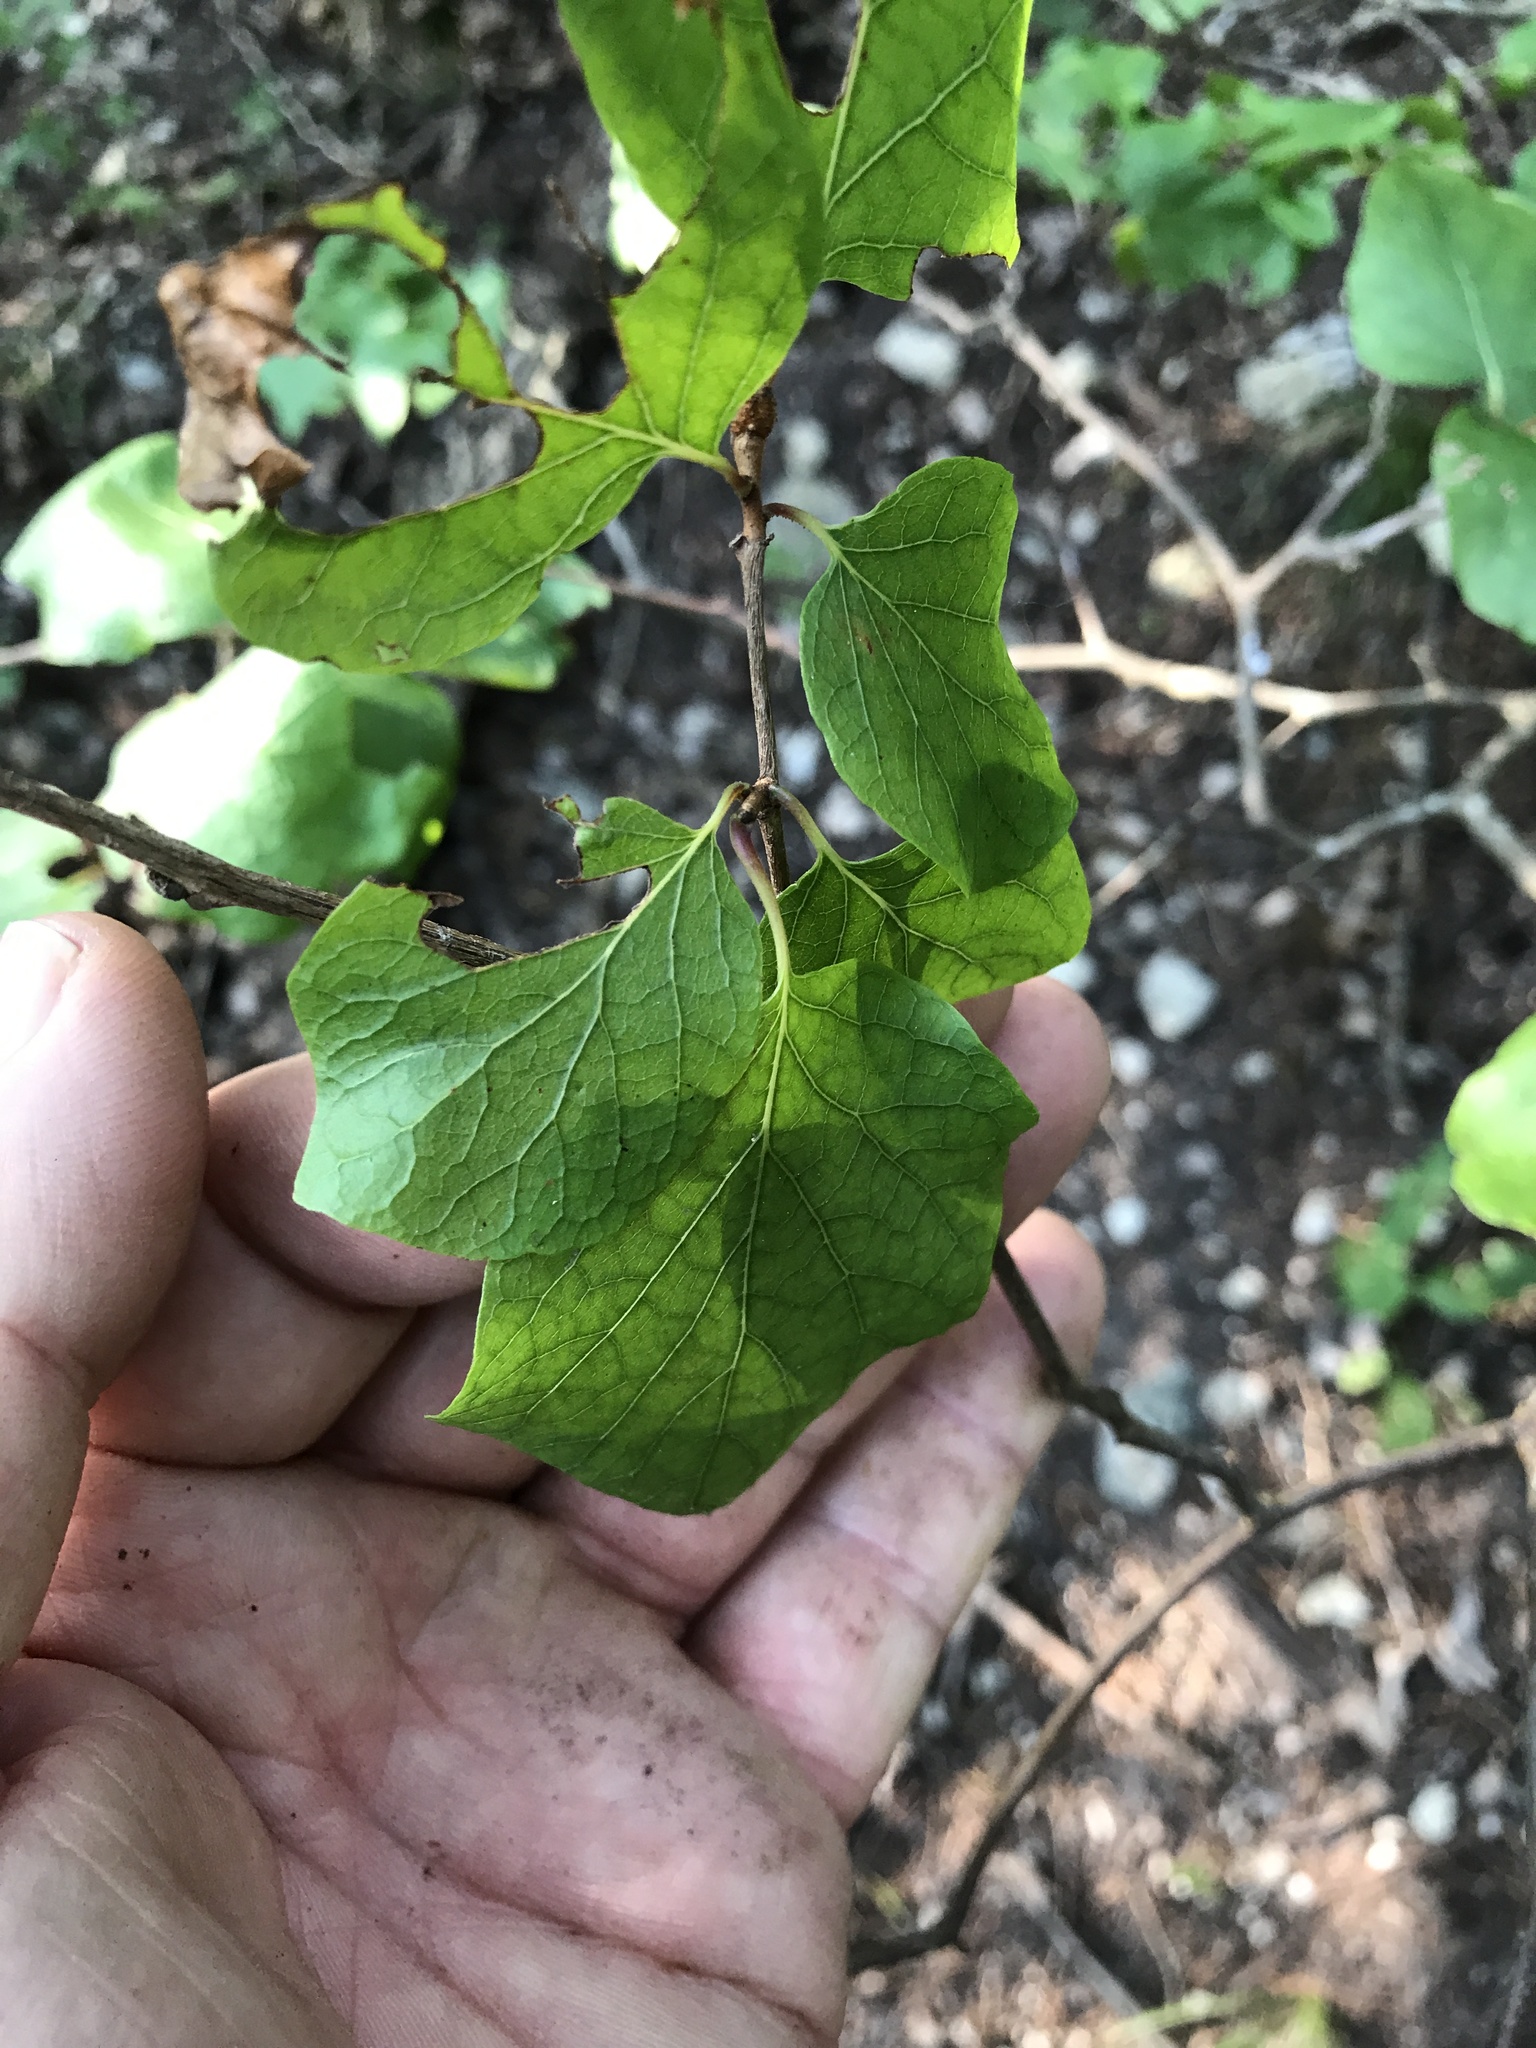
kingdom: Plantae
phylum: Tracheophyta
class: Magnoliopsida
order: Ericales
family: Styracaceae
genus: Styrax
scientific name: Styrax platanifolius
